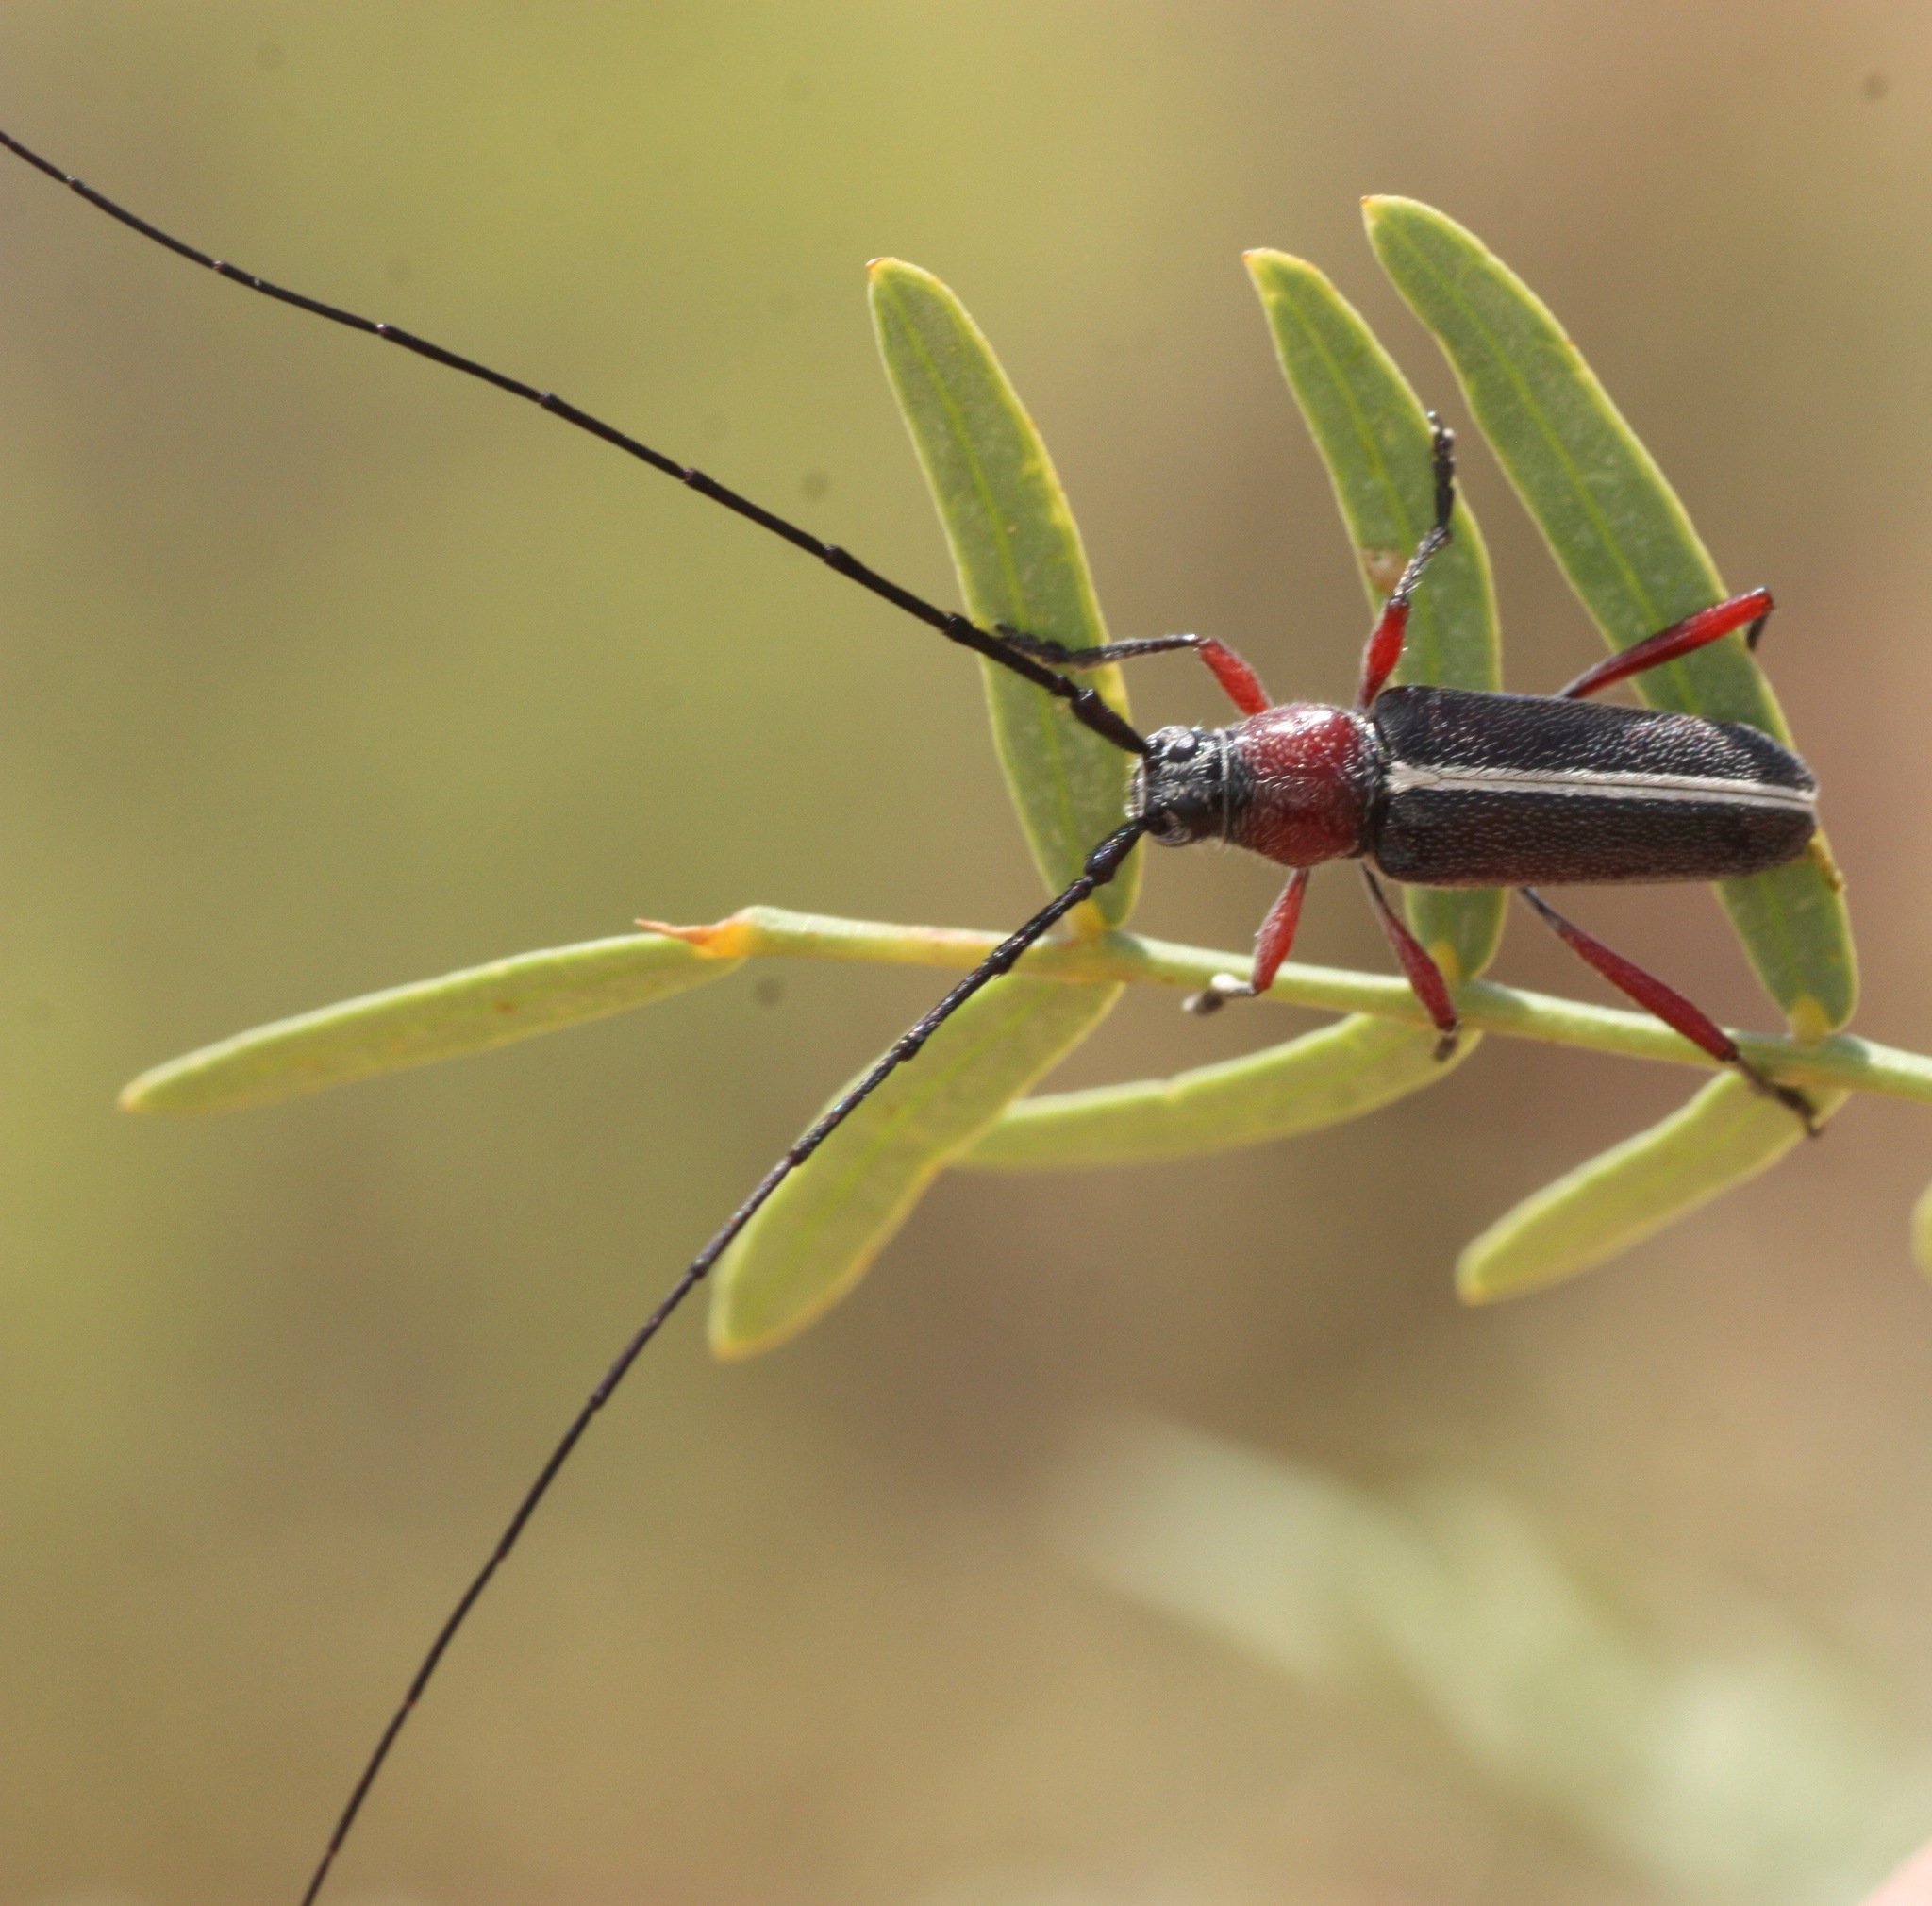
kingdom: Animalia
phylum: Arthropoda
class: Insecta
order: Coleoptera
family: Cerambycidae
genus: Plionoma
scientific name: Plionoma suturalis
